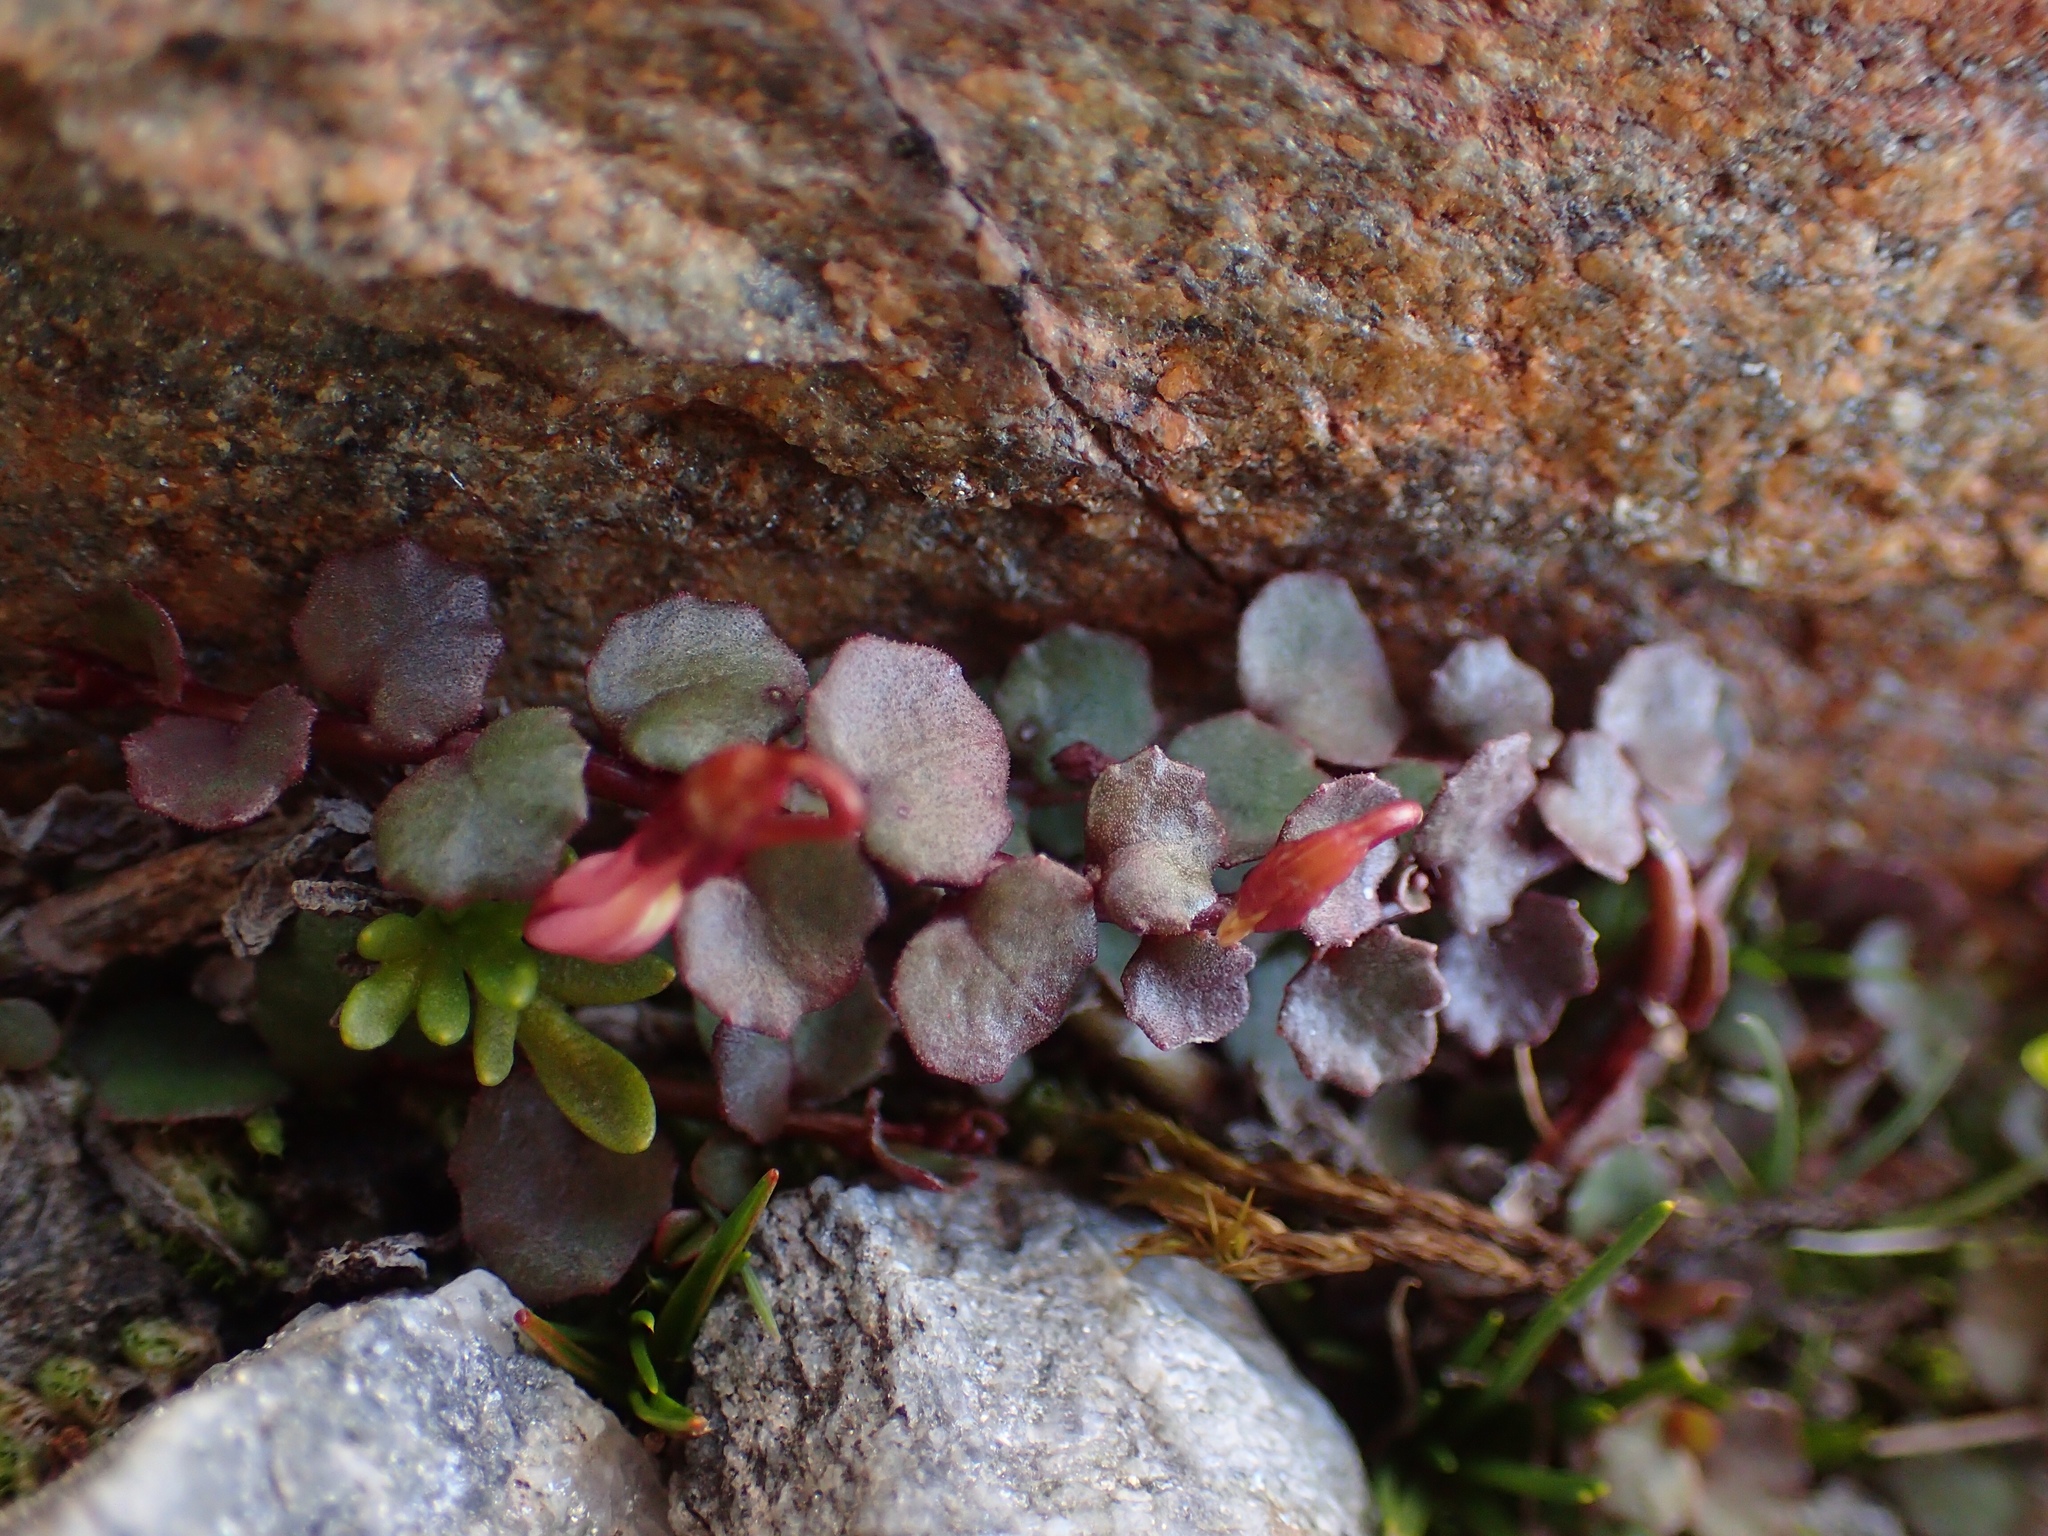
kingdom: Plantae
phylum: Tracheophyta
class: Magnoliopsida
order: Asterales
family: Campanulaceae
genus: Lobelia
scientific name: Lobelia angulata
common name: Lawn lobelia
